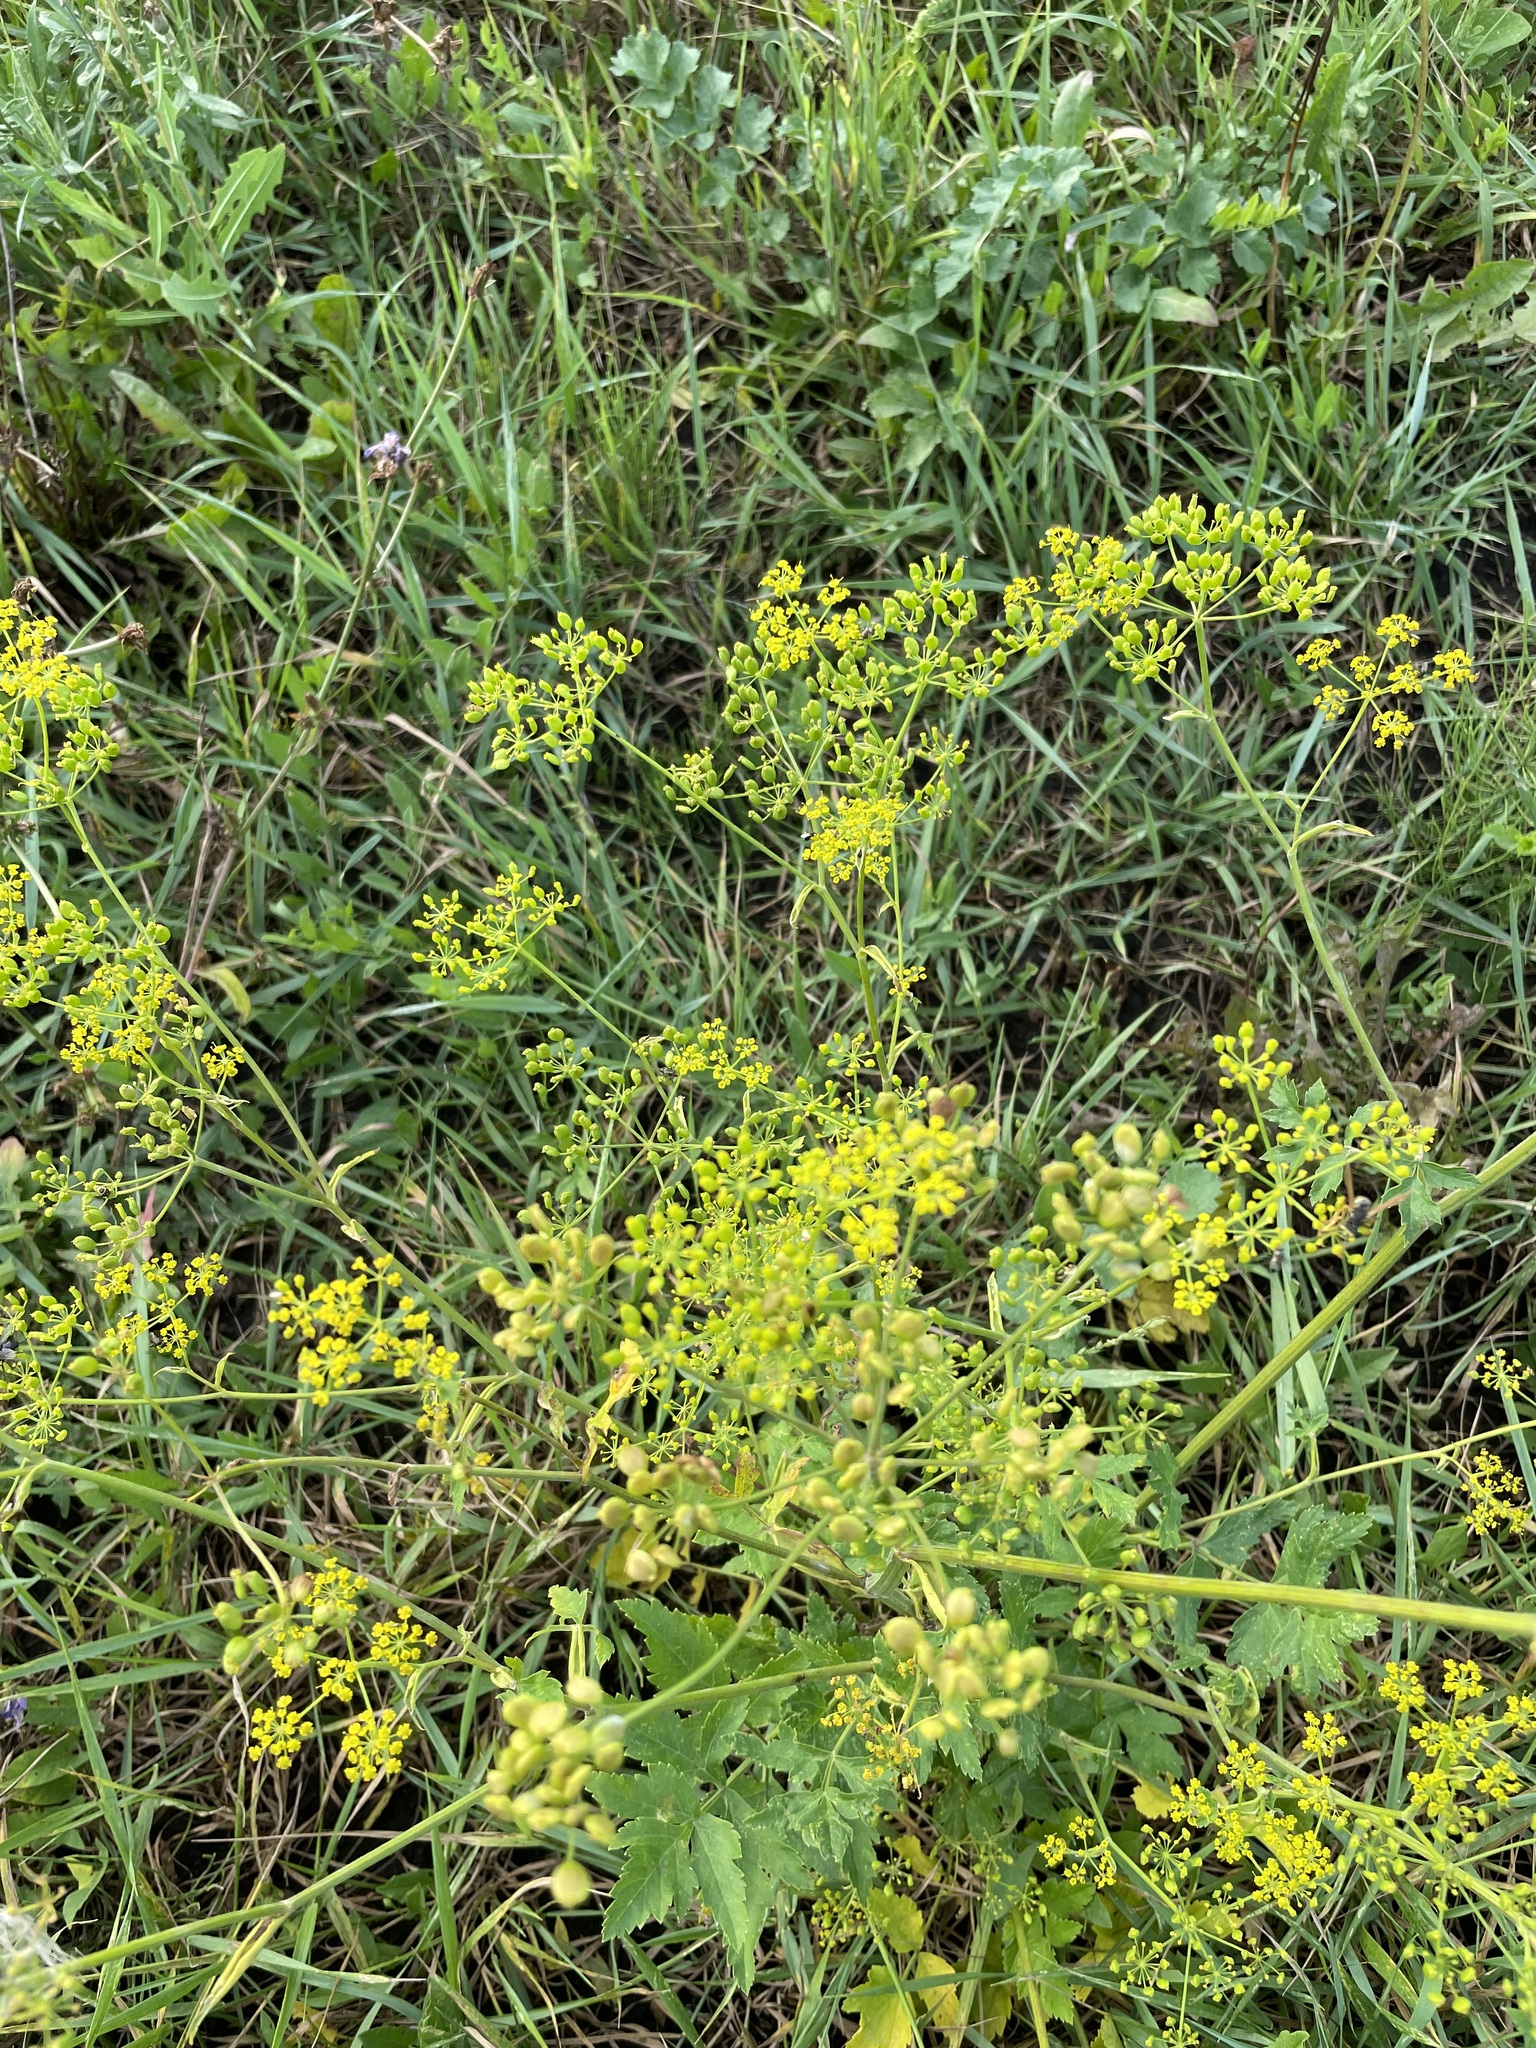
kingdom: Plantae
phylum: Tracheophyta
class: Magnoliopsida
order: Apiales
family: Apiaceae
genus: Pastinaca
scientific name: Pastinaca sativa
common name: Wild parsnip
